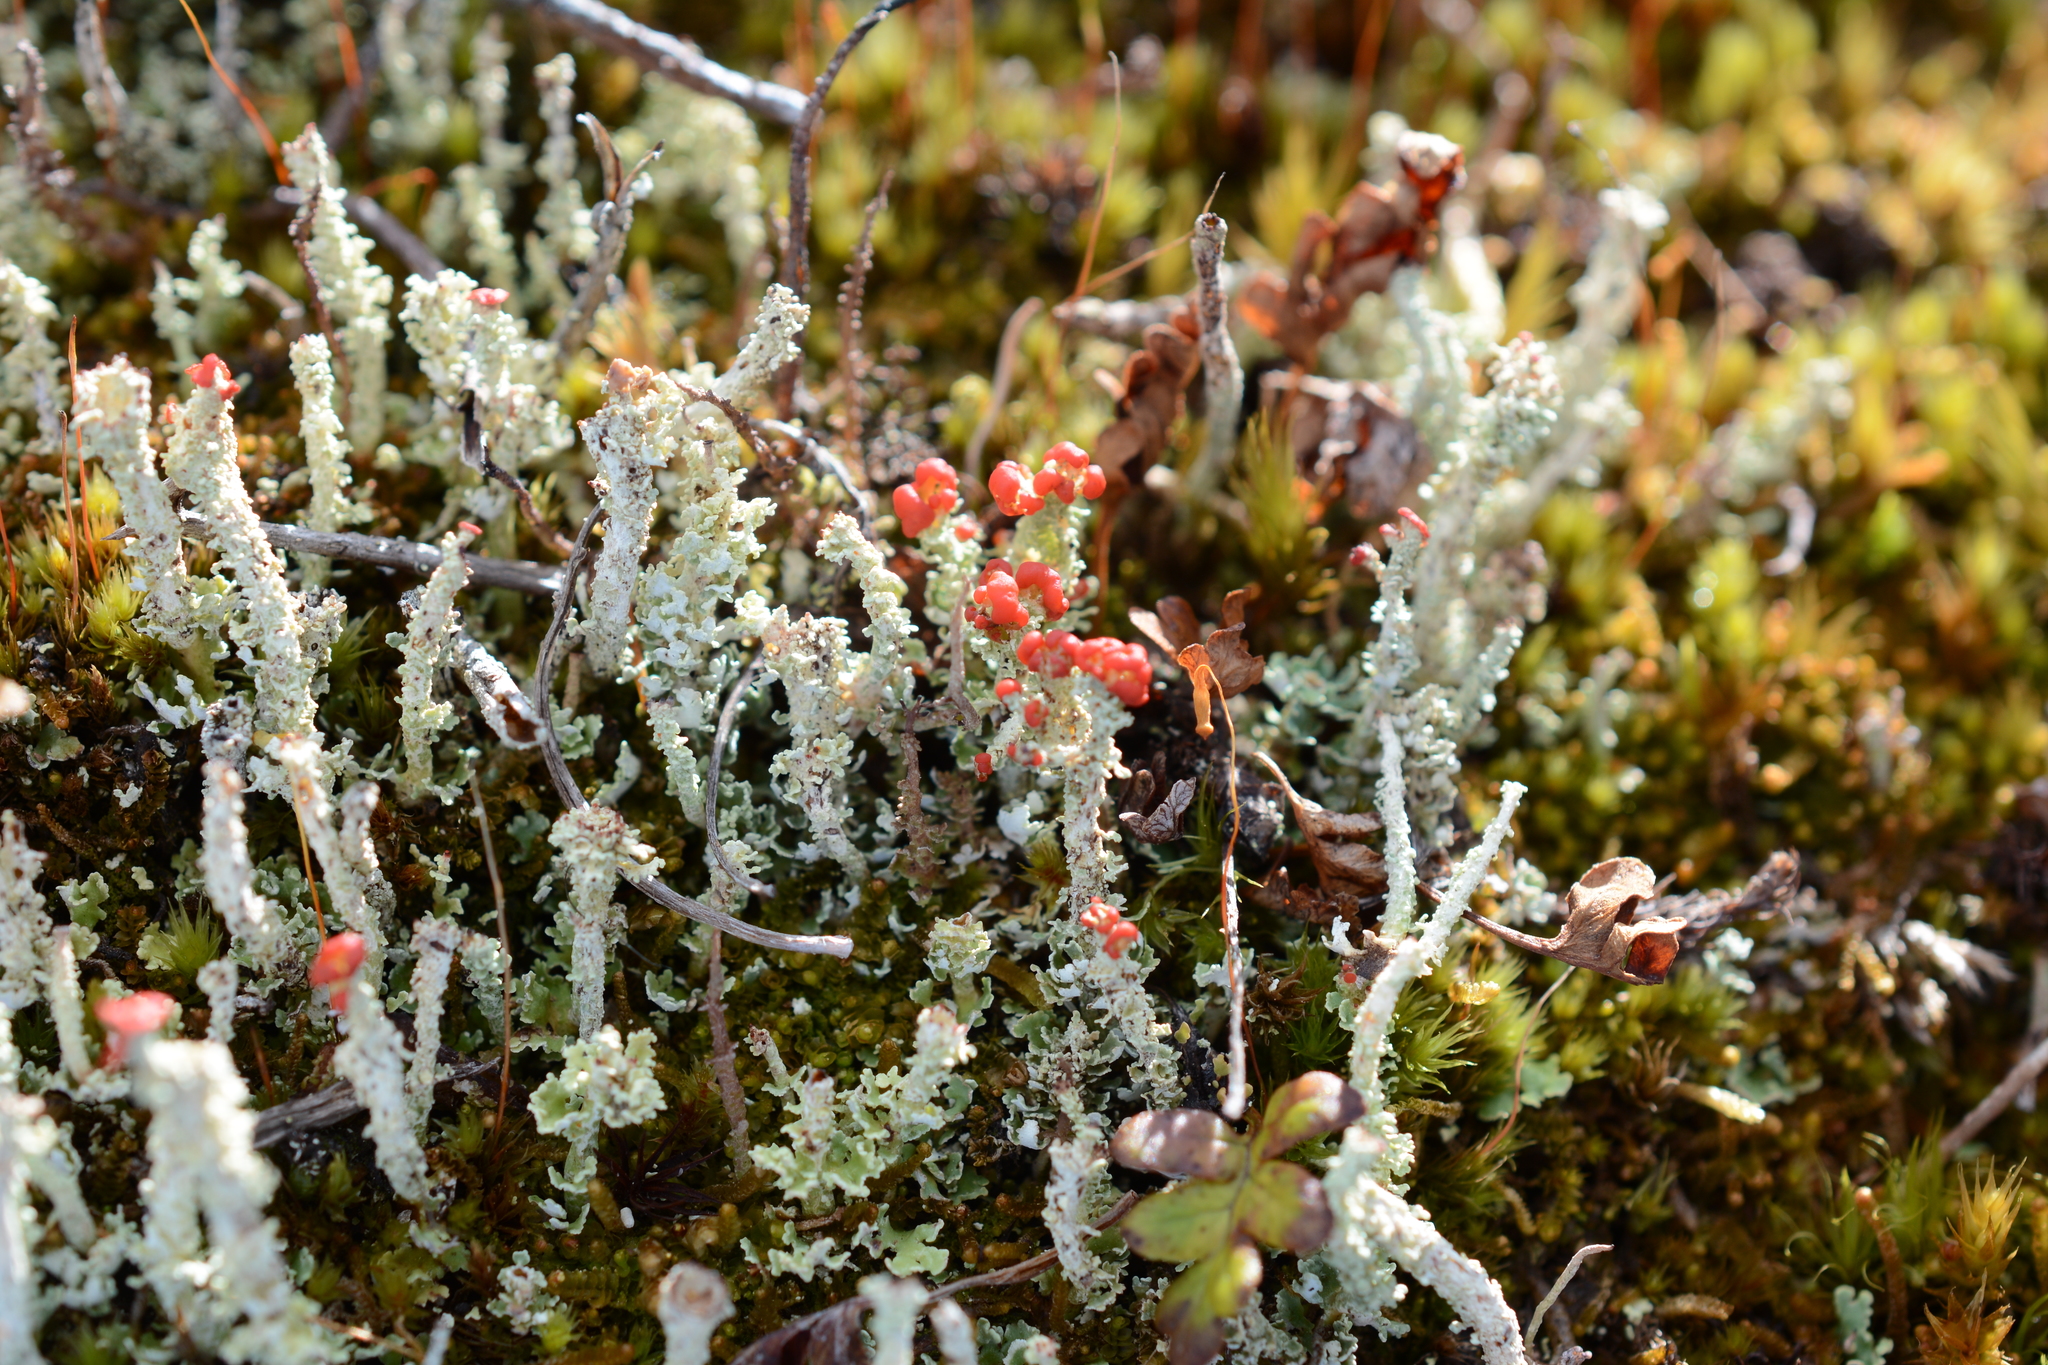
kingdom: Fungi
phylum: Ascomycota
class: Lecanoromycetes
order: Lecanorales
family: Cladoniaceae
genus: Cladonia
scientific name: Cladonia bellidiflora
